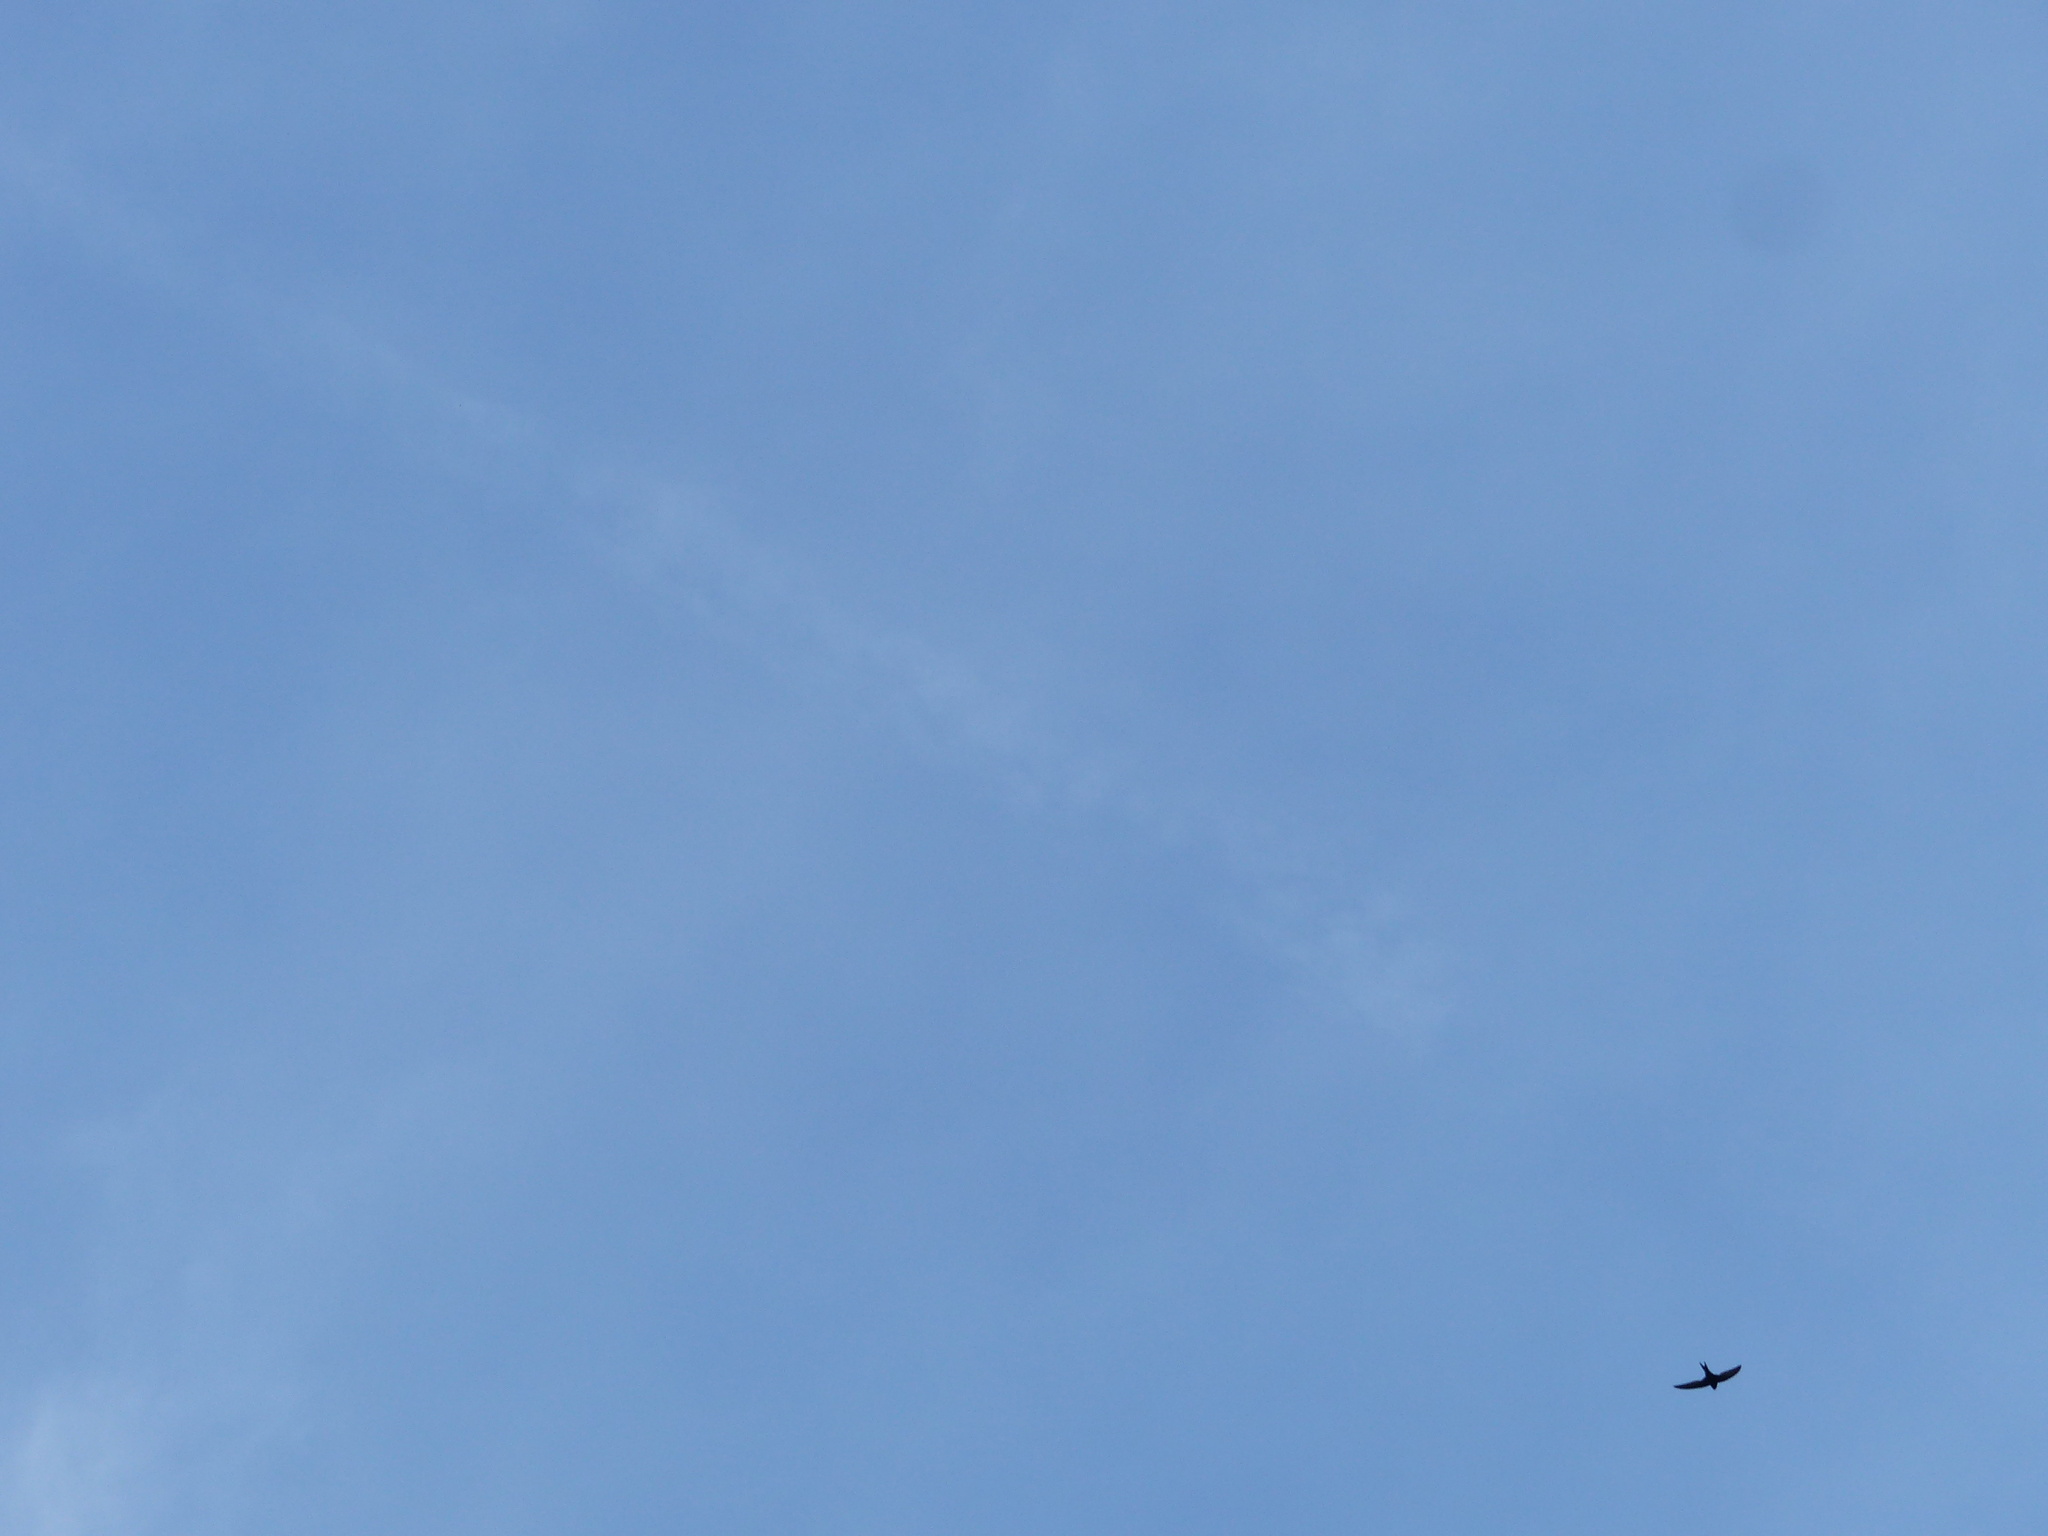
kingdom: Animalia
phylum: Chordata
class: Aves
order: Apodiformes
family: Apodidae
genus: Apus
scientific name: Apus apus
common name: Common swift
